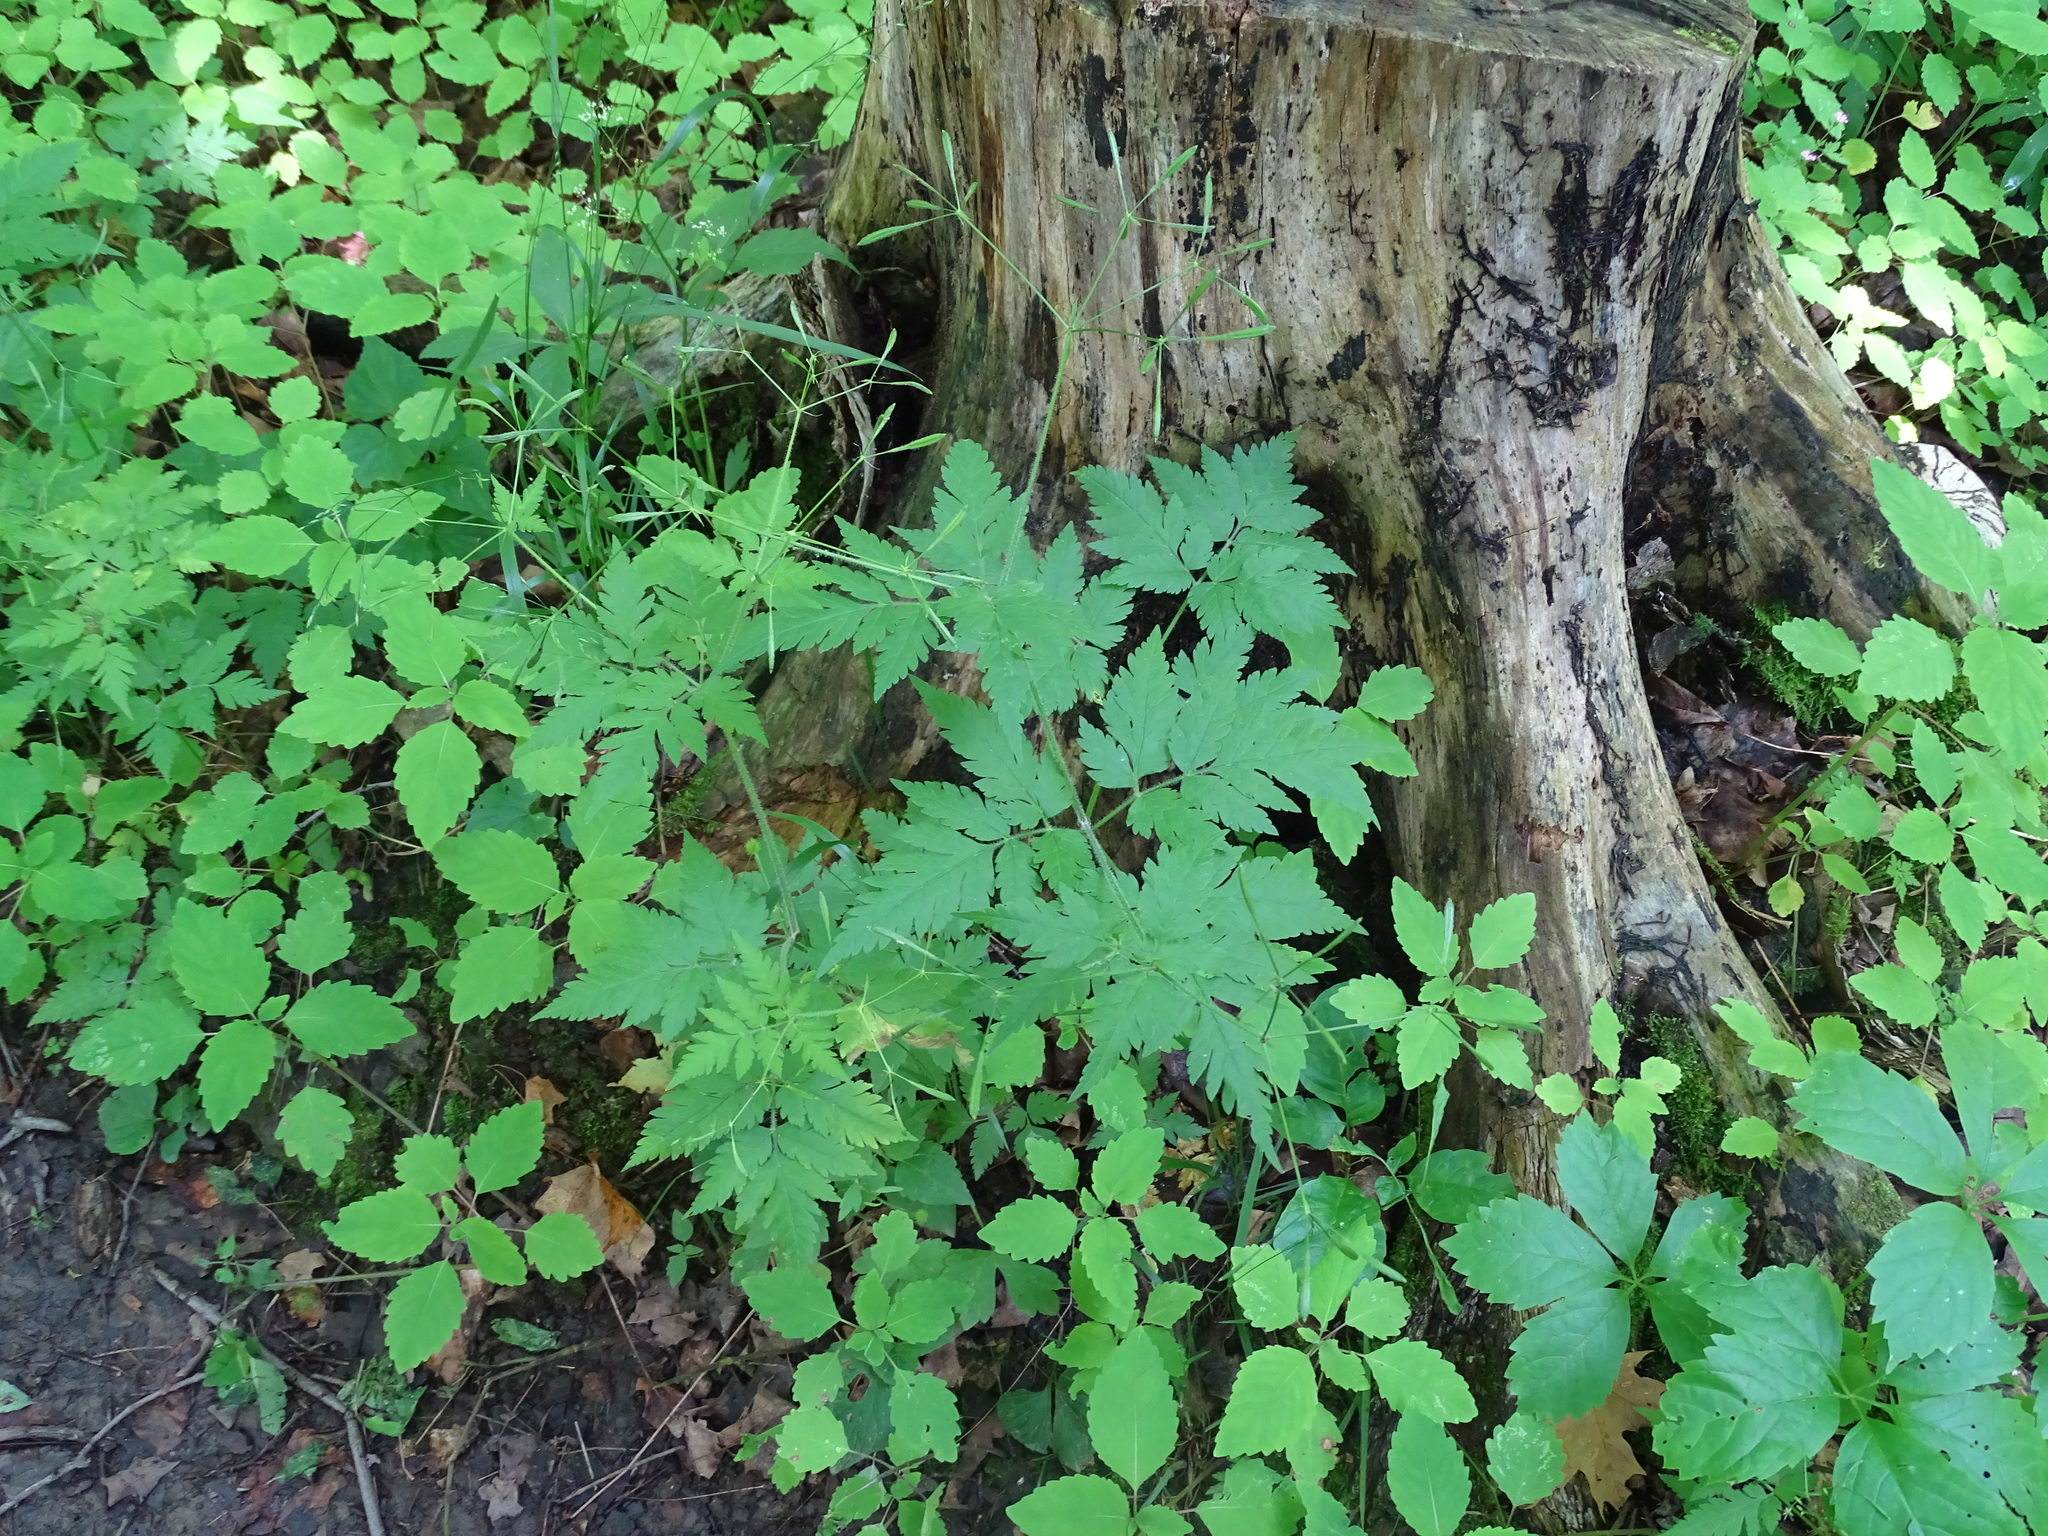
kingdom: Plantae
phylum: Tracheophyta
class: Magnoliopsida
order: Apiales
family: Apiaceae
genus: Osmorhiza
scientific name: Osmorhiza claytonii
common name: Hairy sweet cicely
